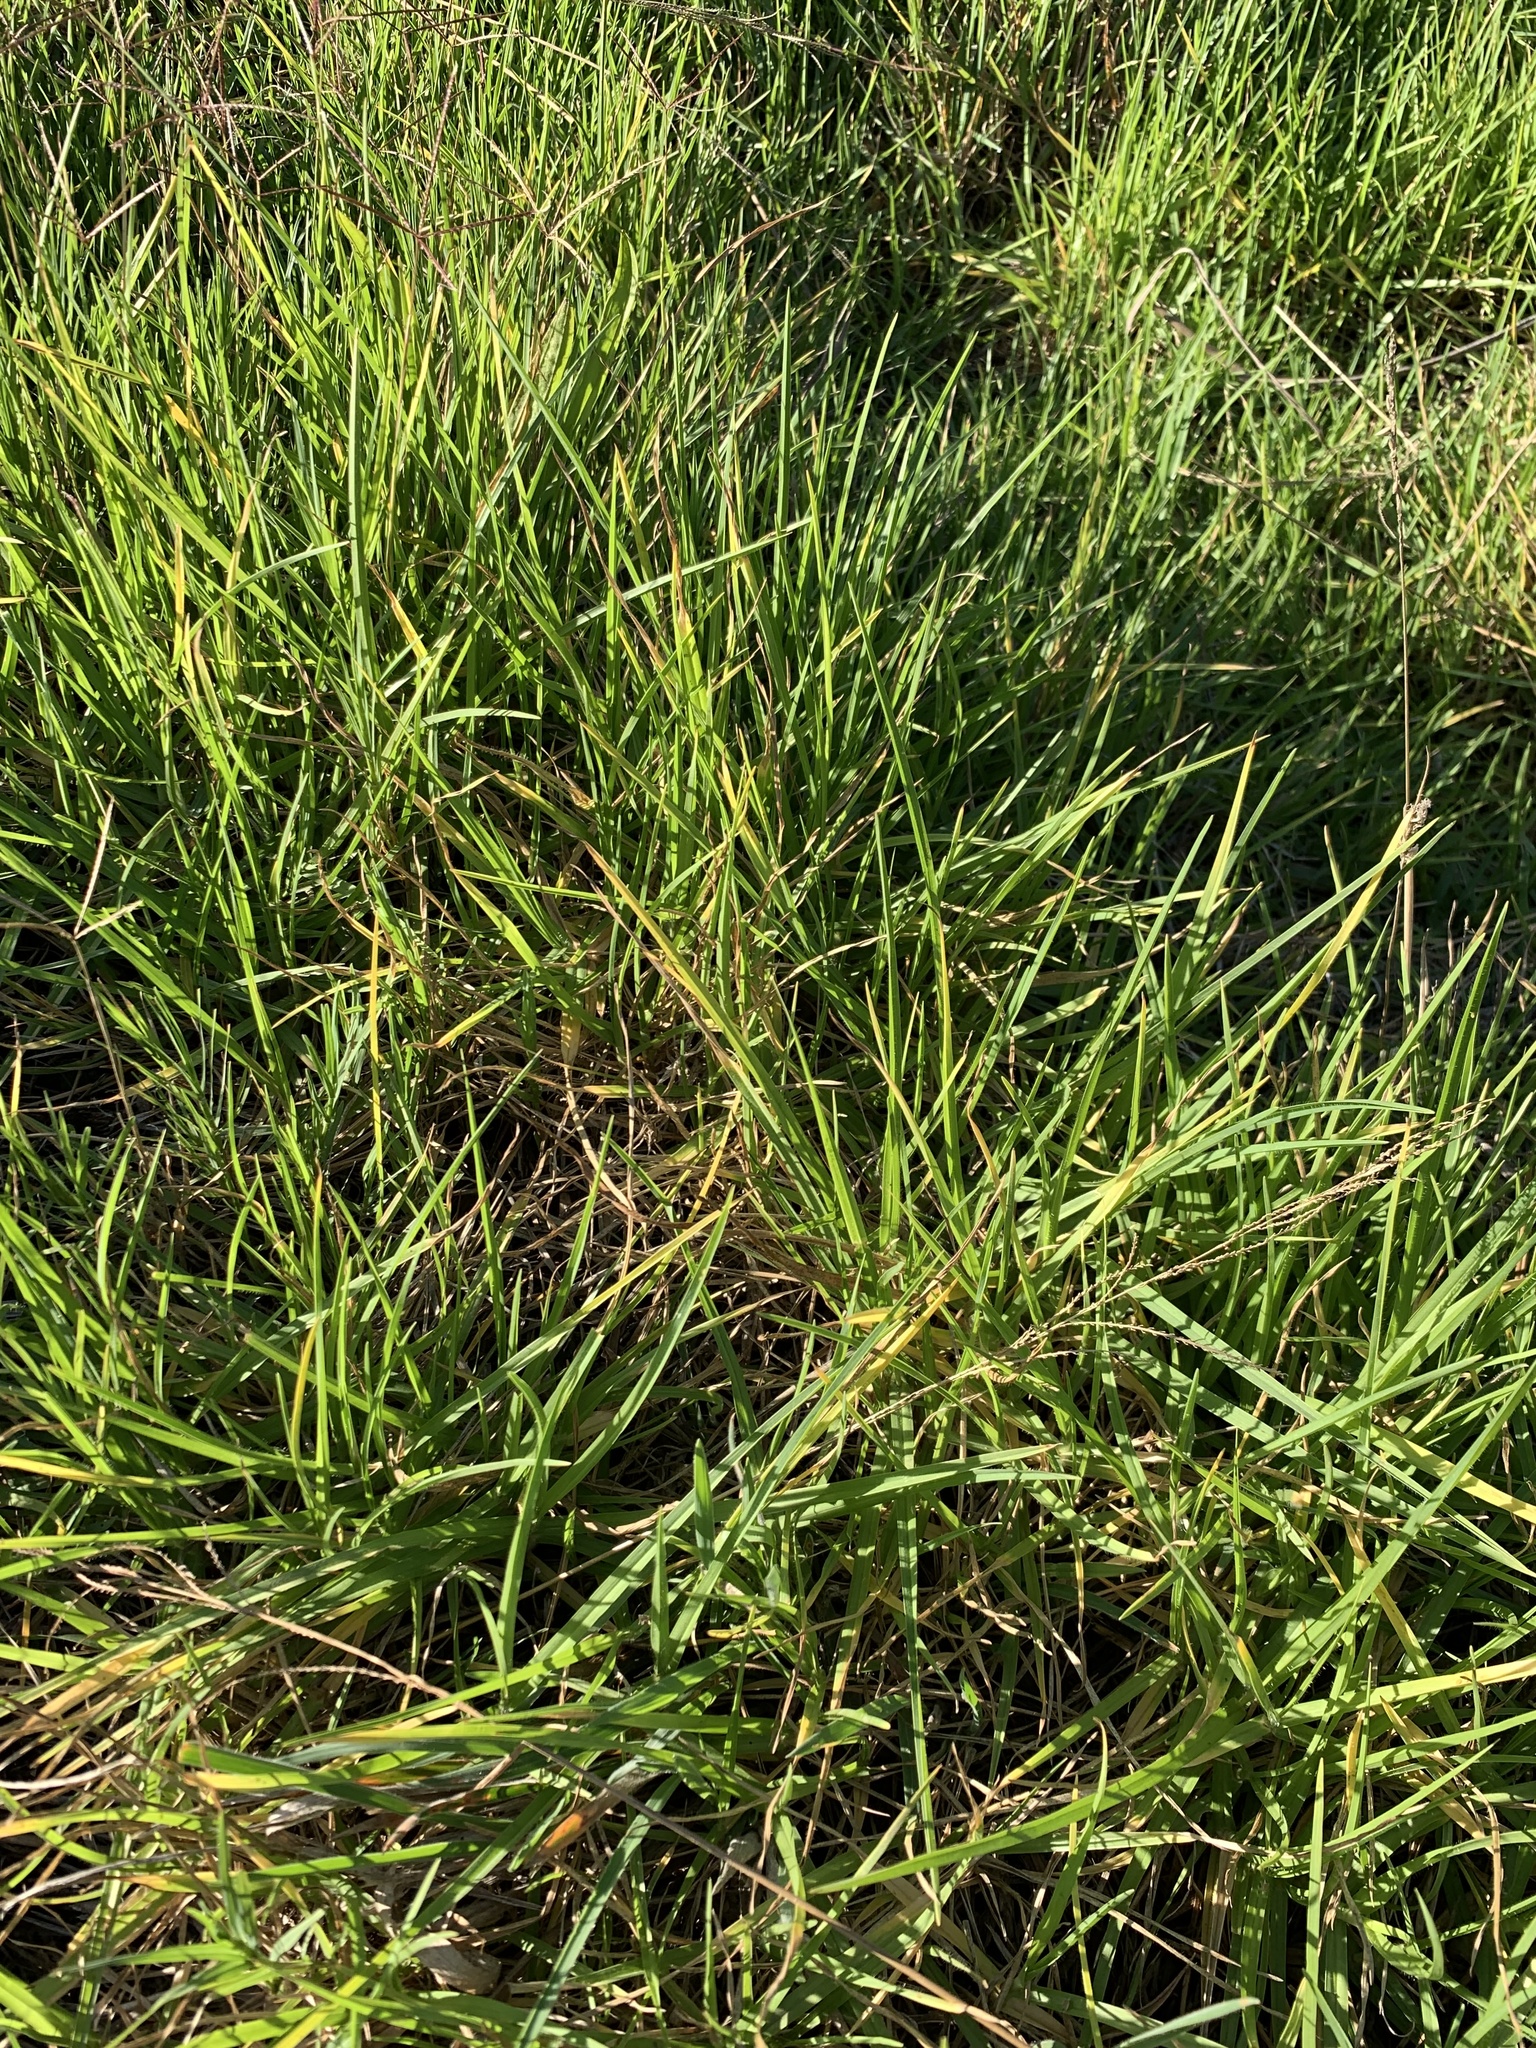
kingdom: Plantae
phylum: Tracheophyta
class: Liliopsida
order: Poales
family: Poaceae
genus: Cenchrus
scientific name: Cenchrus clandestinus
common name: Kikuyugrass
